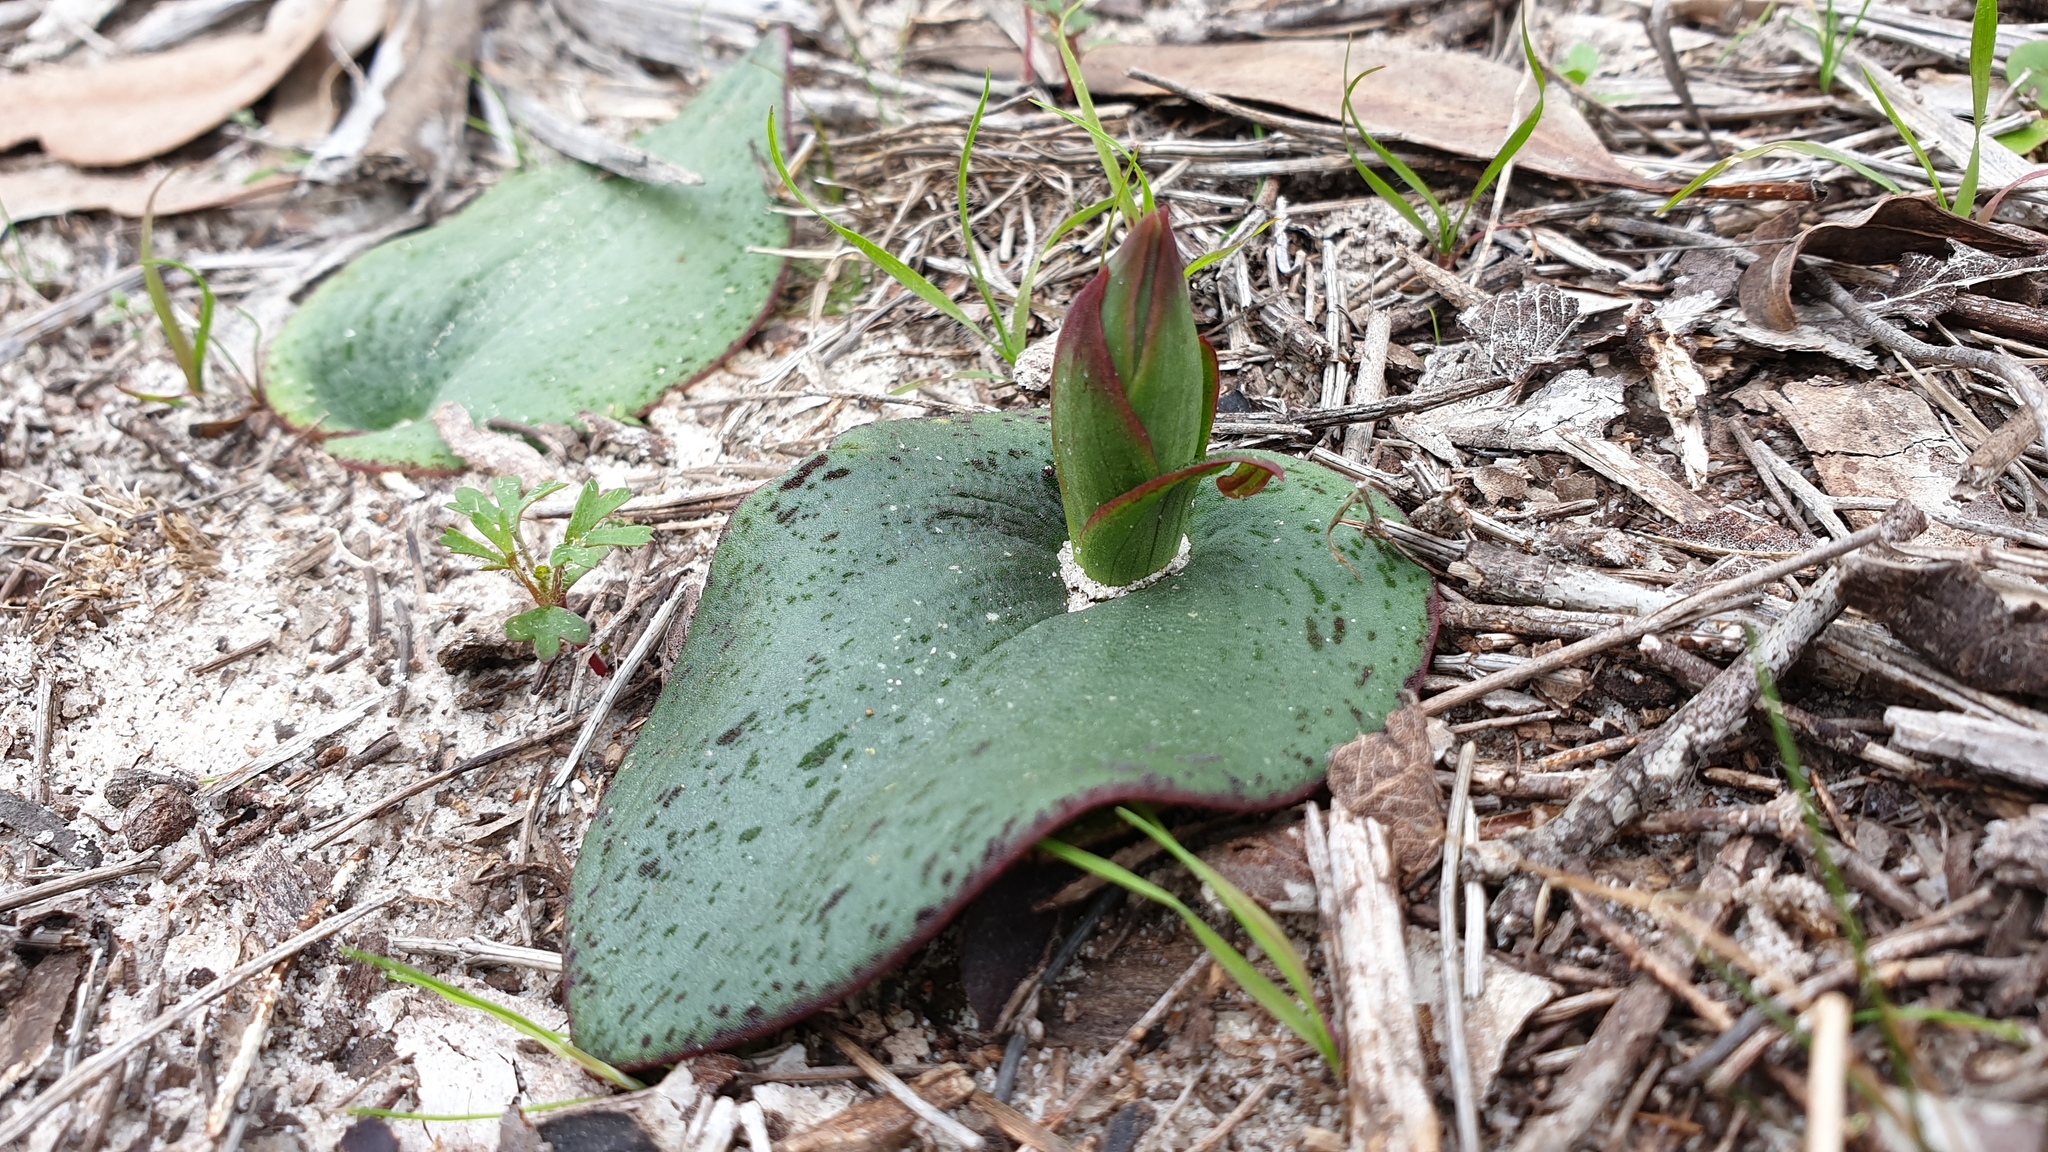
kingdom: Plantae
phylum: Tracheophyta
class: Liliopsida
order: Asparagales
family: Orchidaceae
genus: Pyrorchis
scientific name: Pyrorchis nigricans
